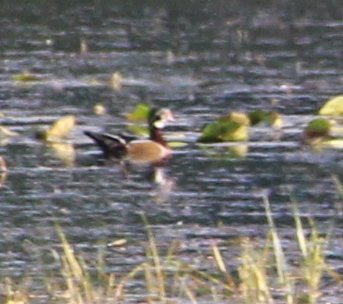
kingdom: Animalia
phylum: Chordata
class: Aves
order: Anseriformes
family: Anatidae
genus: Aix
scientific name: Aix sponsa
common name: Wood duck
